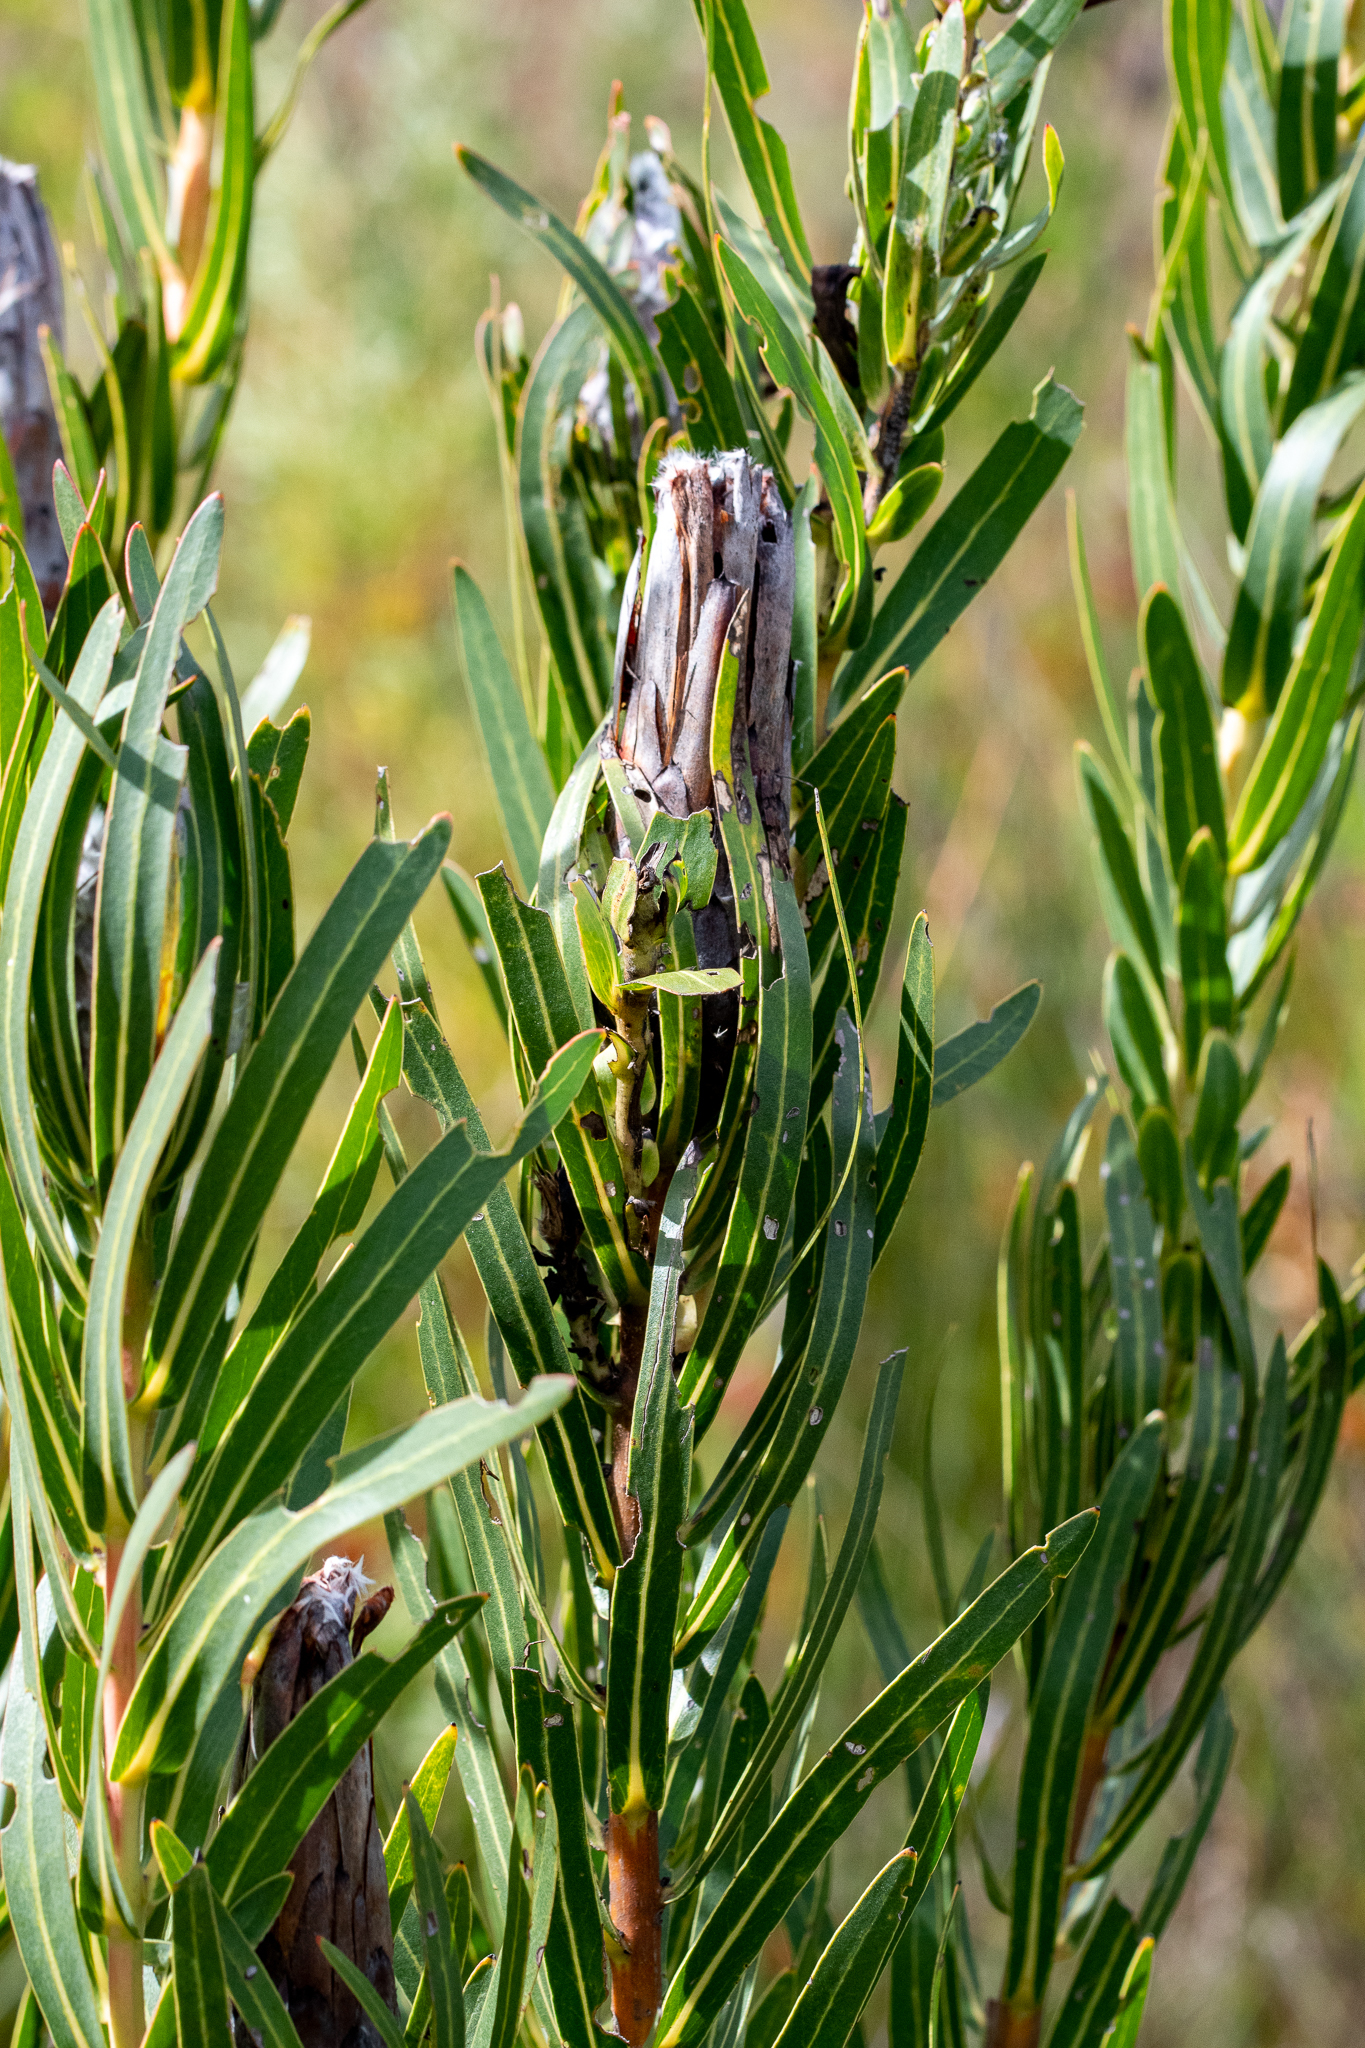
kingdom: Plantae
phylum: Tracheophyta
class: Magnoliopsida
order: Proteales
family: Proteaceae
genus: Protea
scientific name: Protea lepidocarpodendron
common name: Black-bearded protea
